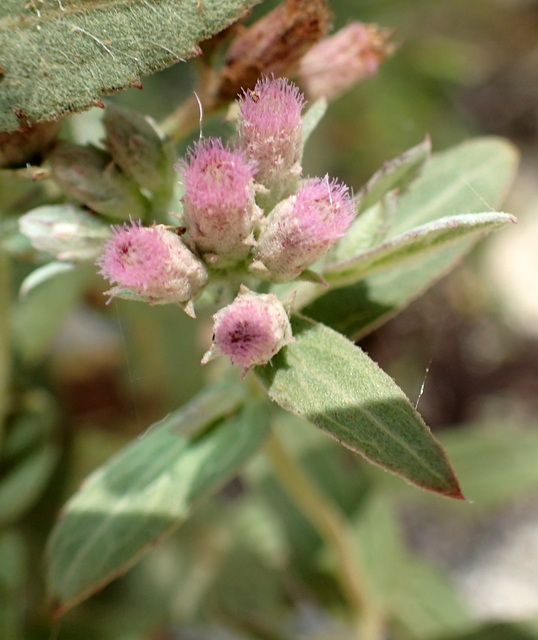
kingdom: Plantae
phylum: Tracheophyta
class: Magnoliopsida
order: Asterales
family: Asteraceae
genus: Pluchea
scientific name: Pluchea baccharis
